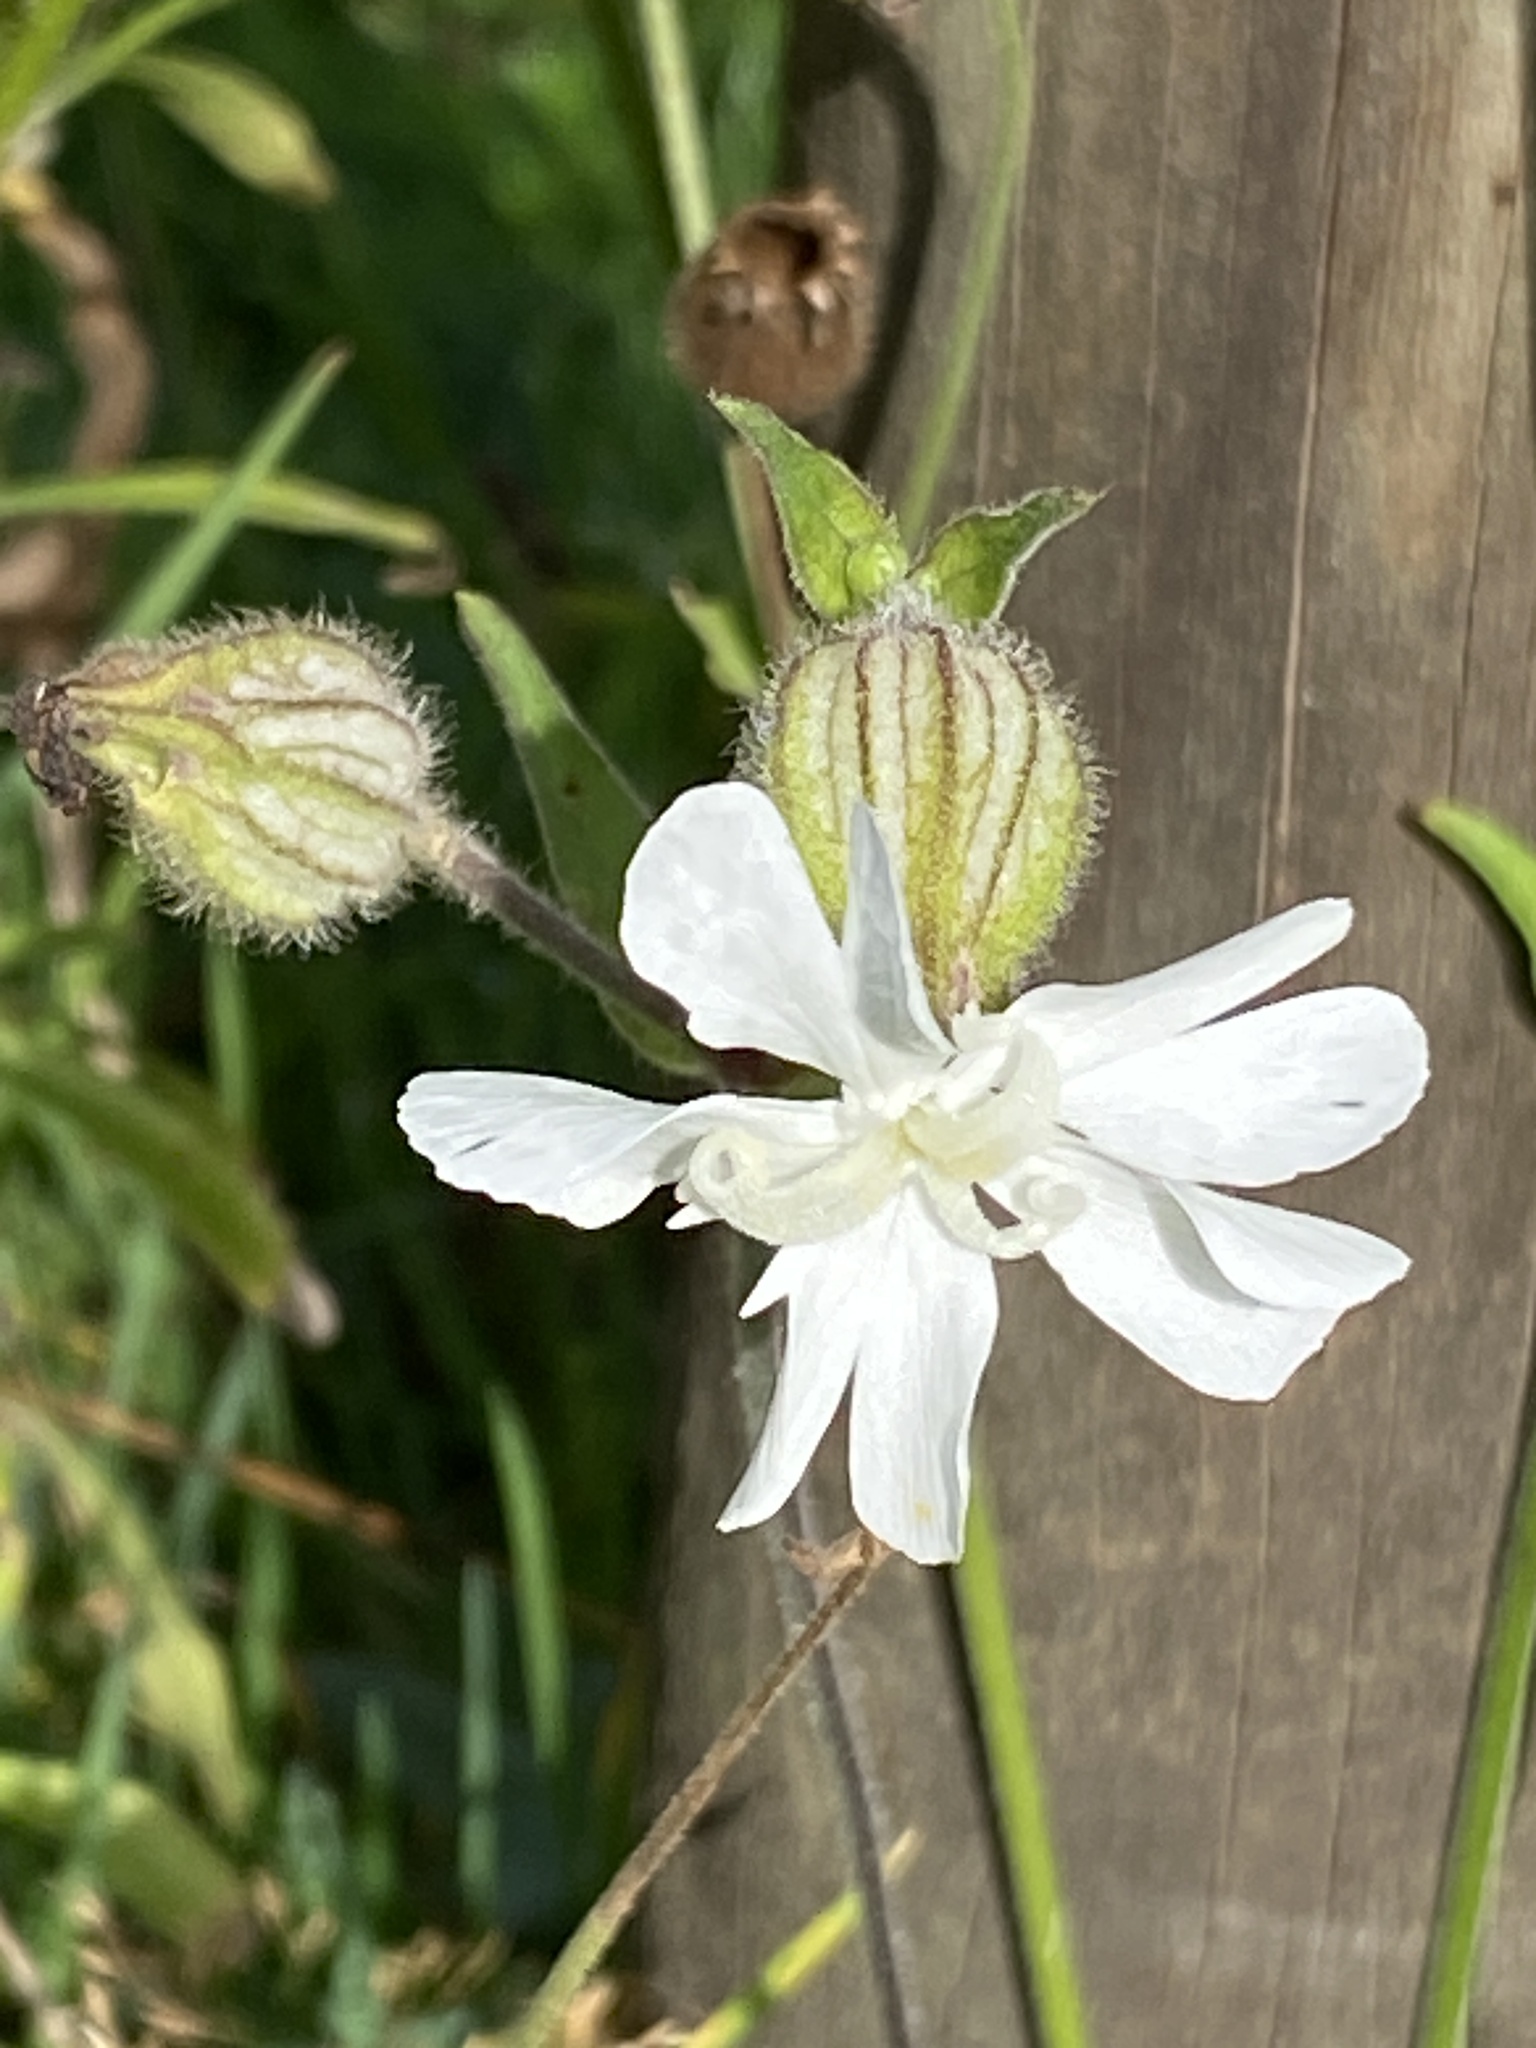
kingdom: Plantae
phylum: Tracheophyta
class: Magnoliopsida
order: Caryophyllales
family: Caryophyllaceae
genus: Silene
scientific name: Silene latifolia
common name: White campion
